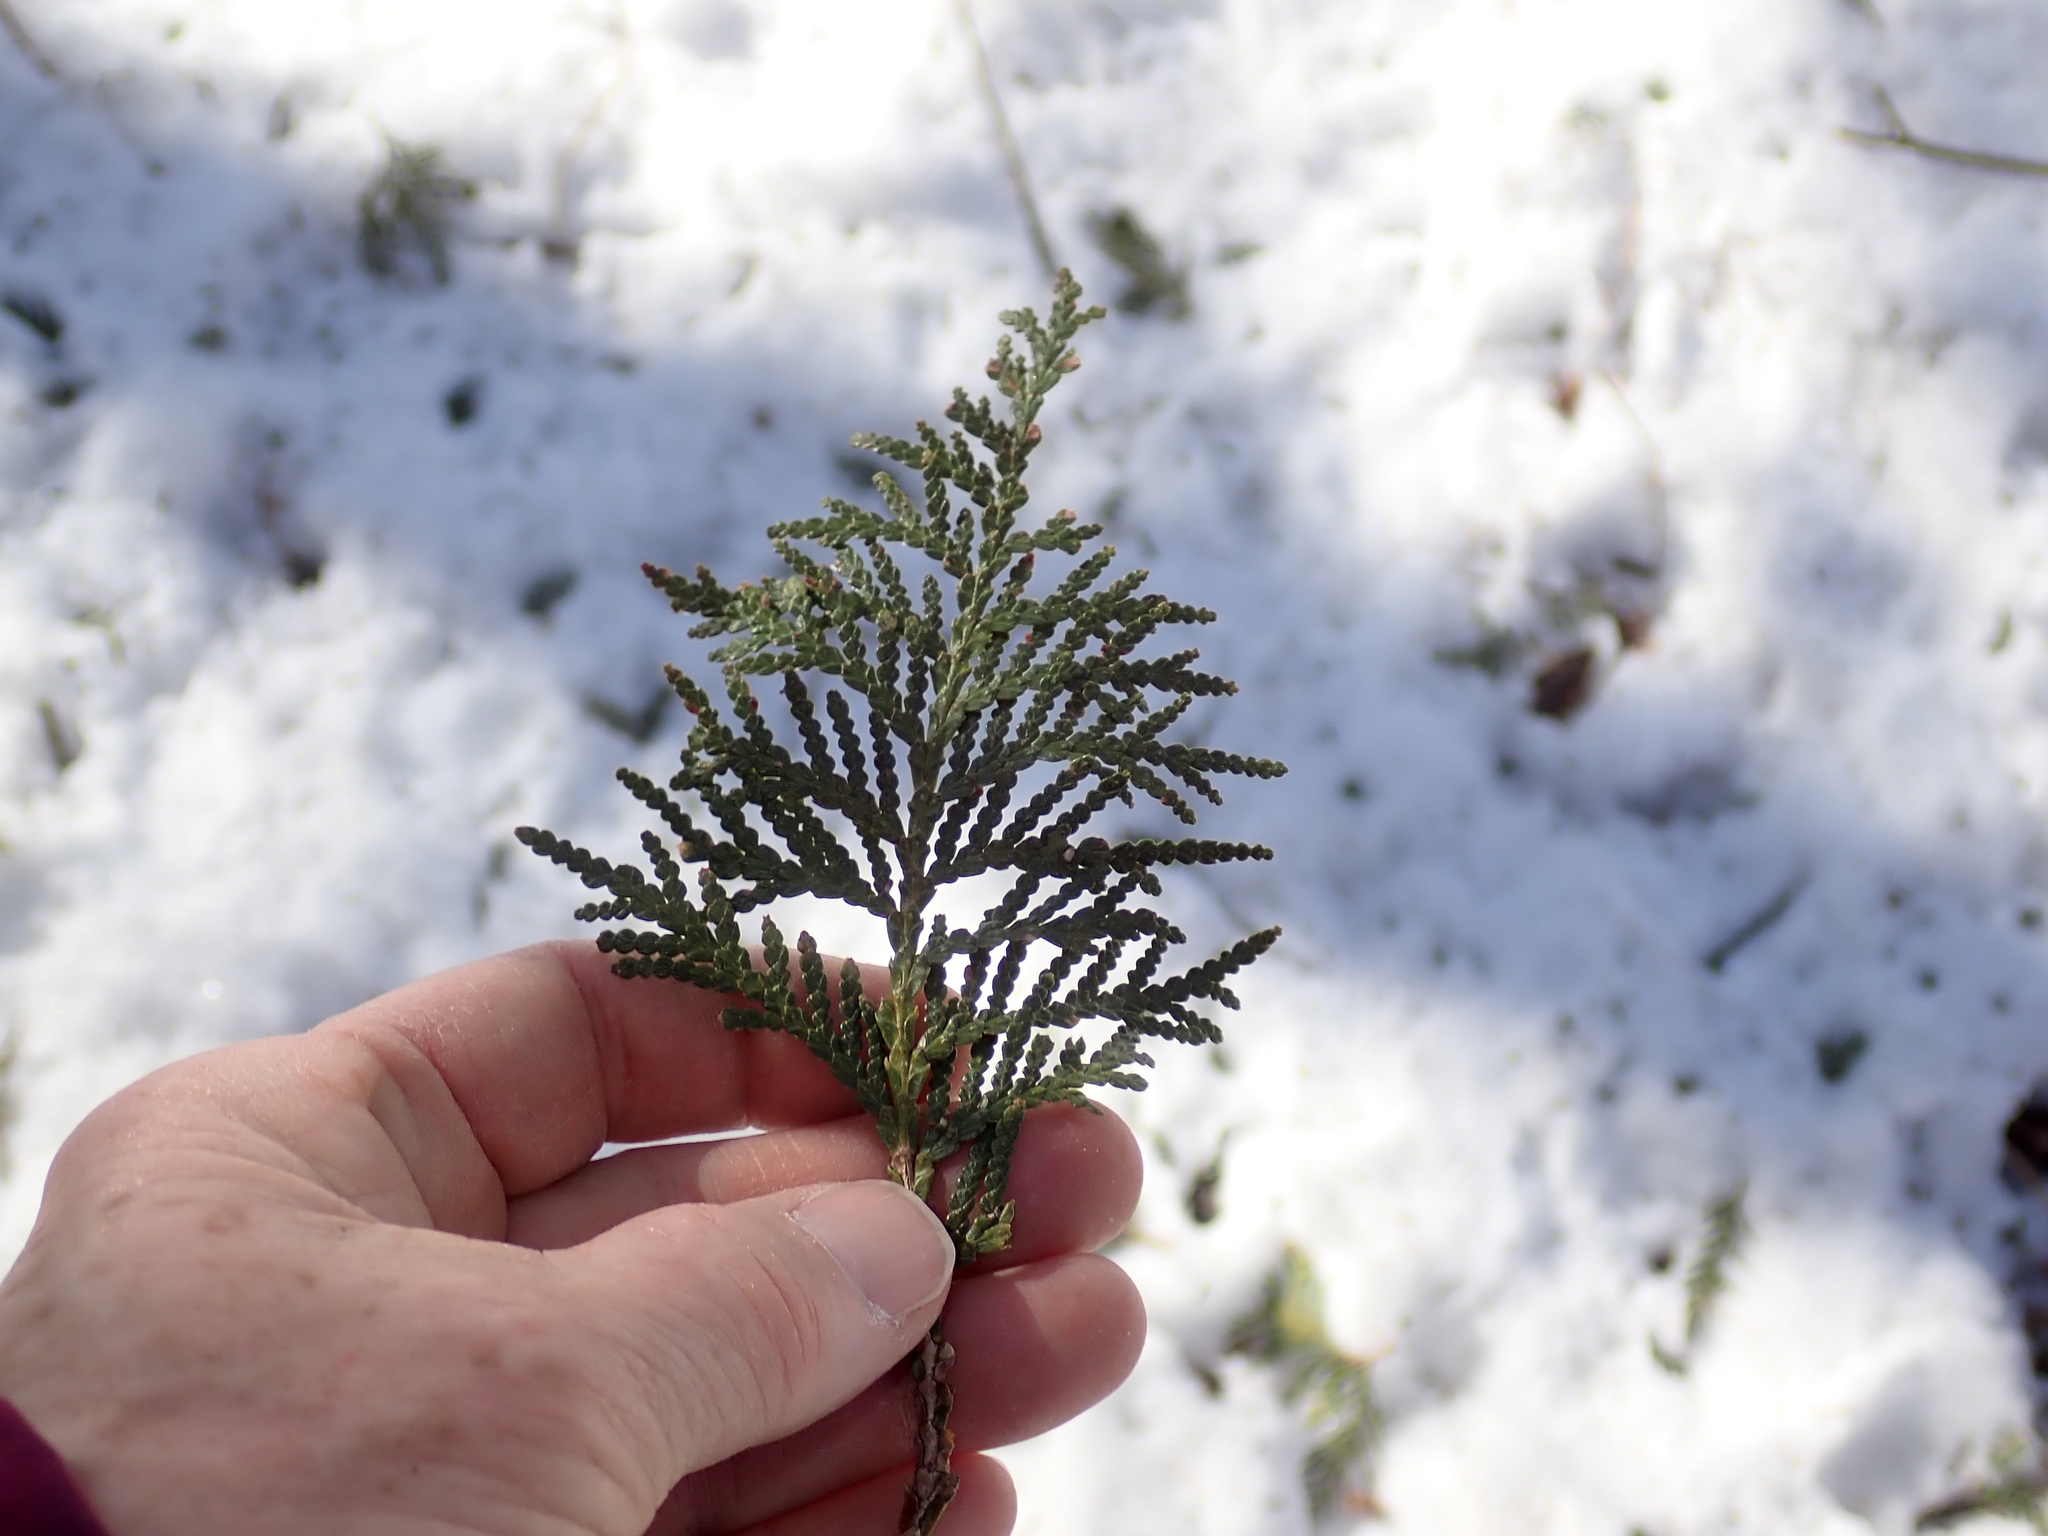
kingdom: Plantae
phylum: Tracheophyta
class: Pinopsida
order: Pinales
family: Cupressaceae
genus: Thuja
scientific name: Thuja occidentalis
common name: Northern white-cedar
